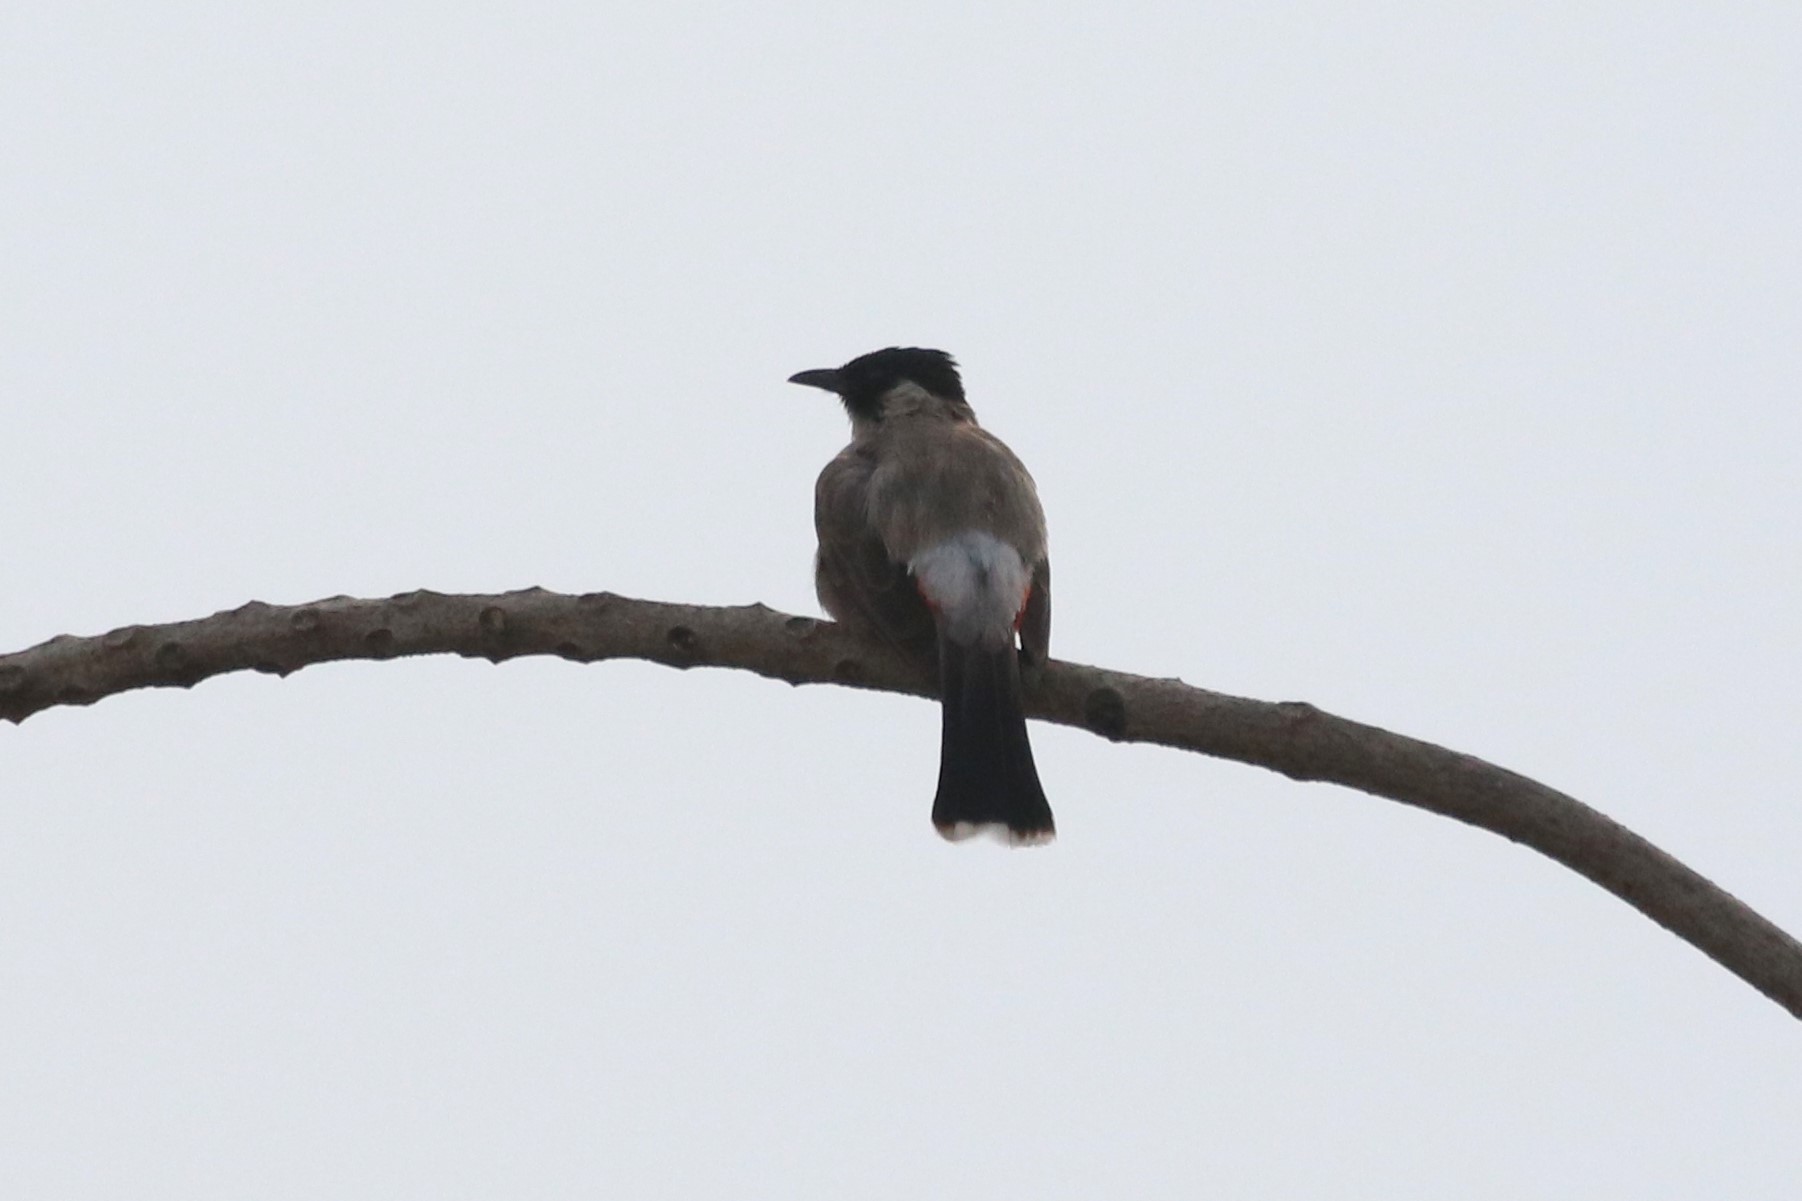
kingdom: Animalia
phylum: Chordata
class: Aves
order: Passeriformes
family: Pycnonotidae
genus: Pycnonotus
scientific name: Pycnonotus aurigaster
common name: Sooty-headed bulbul
